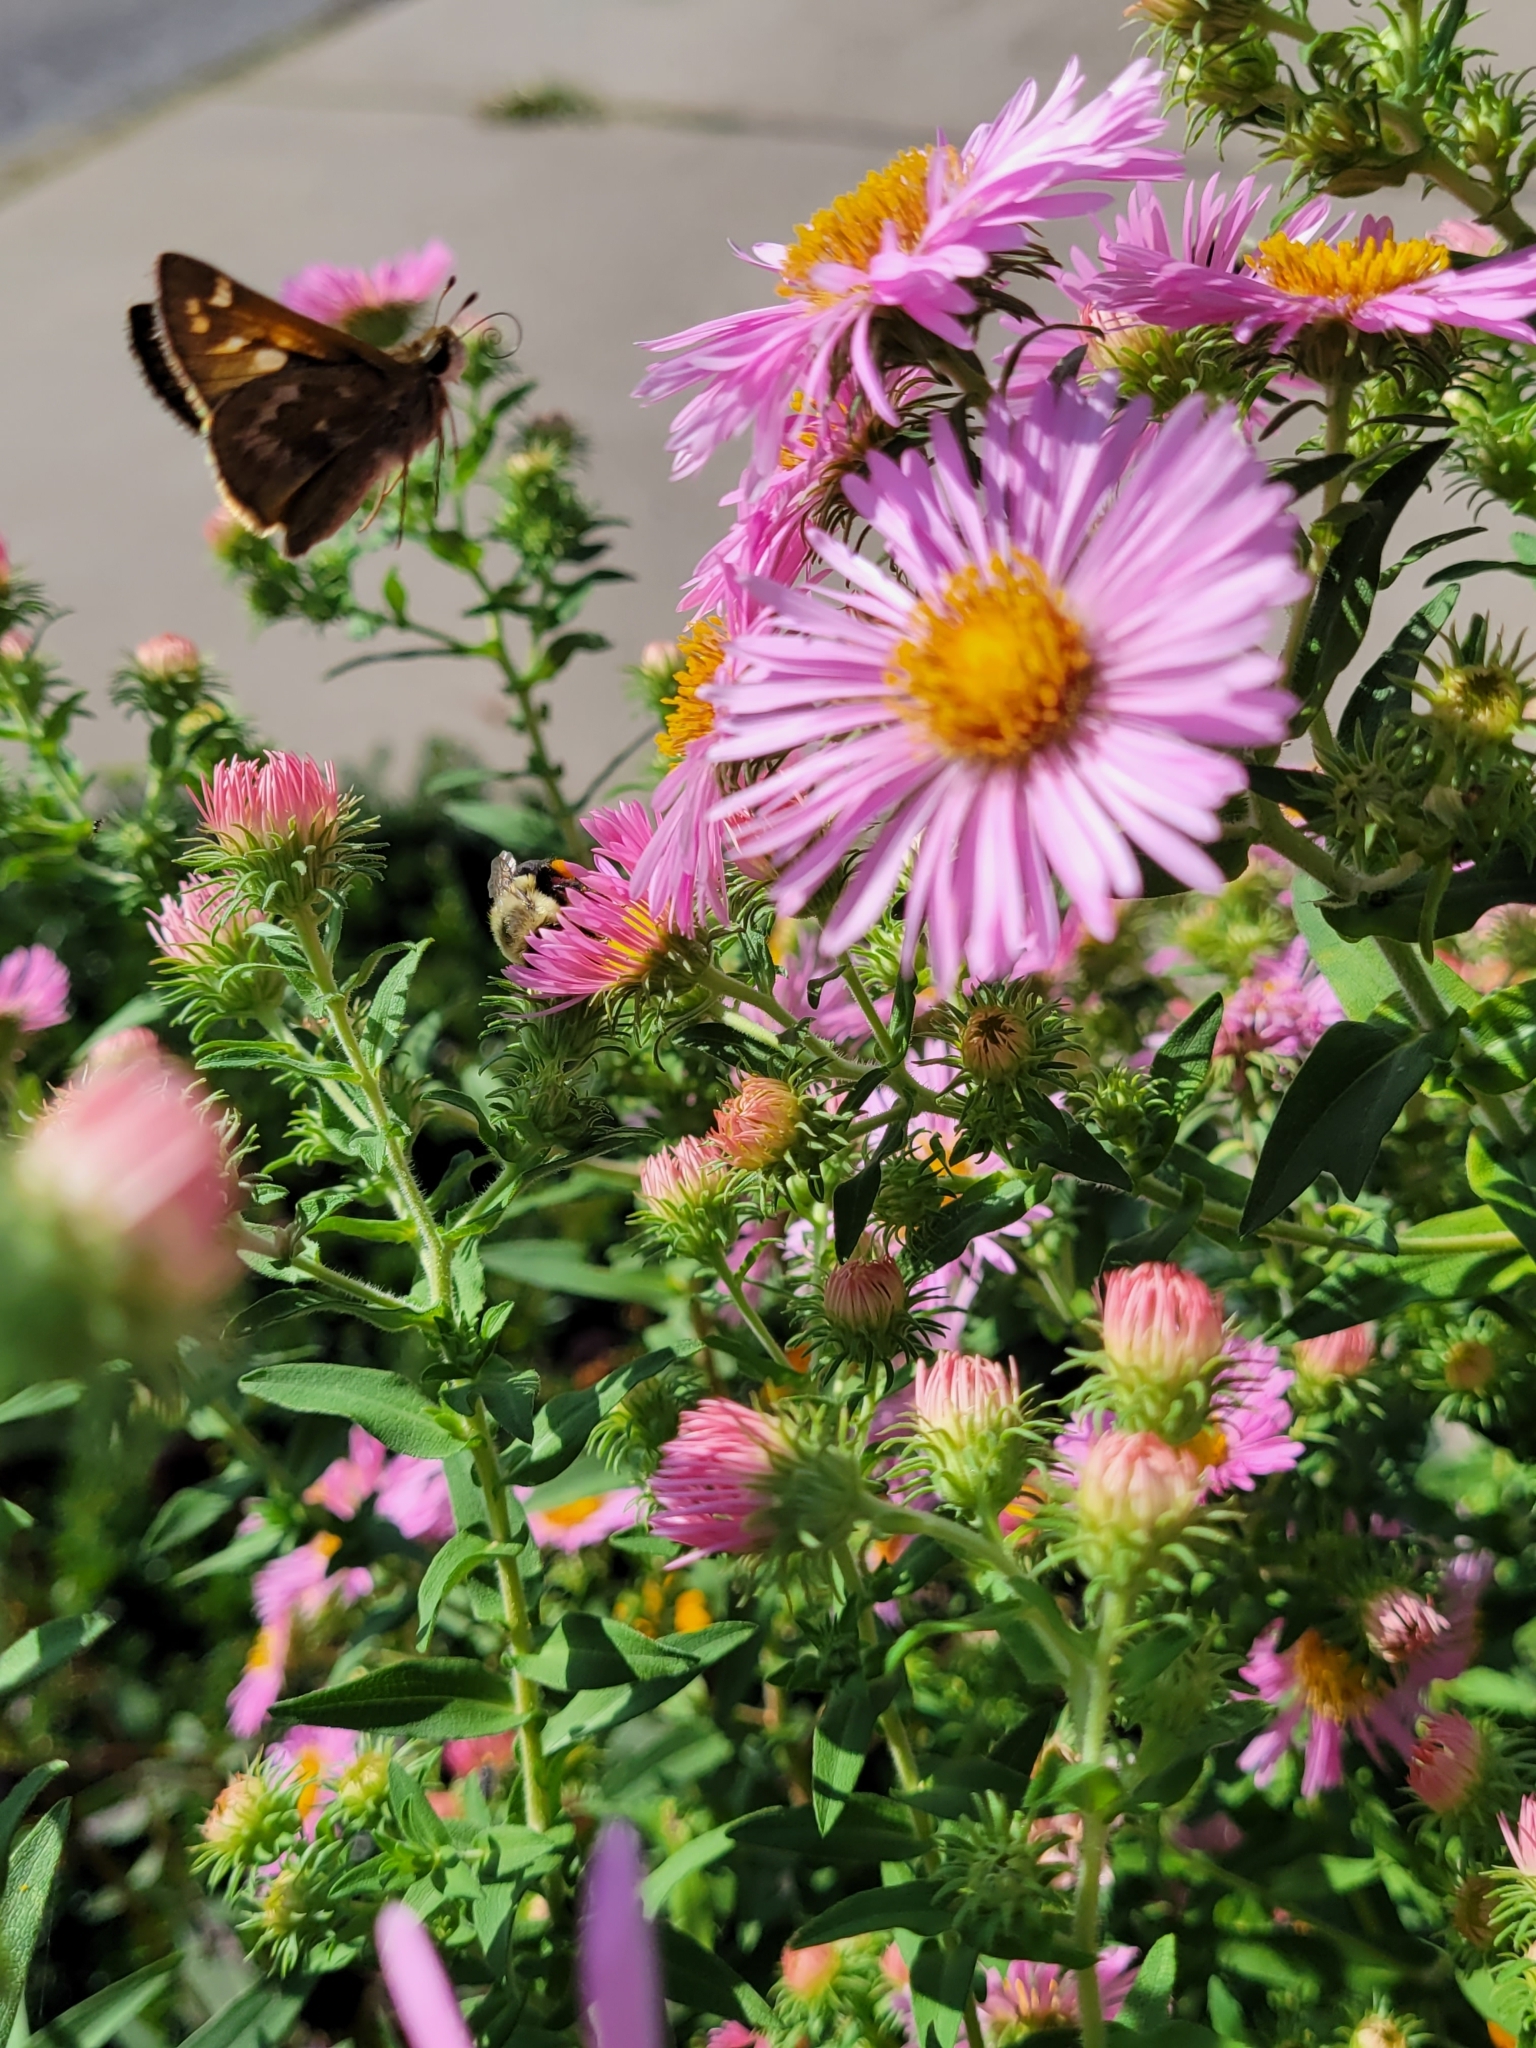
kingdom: Animalia
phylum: Arthropoda
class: Insecta
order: Lepidoptera
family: Hesperiidae
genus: Atalopedes
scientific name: Atalopedes
